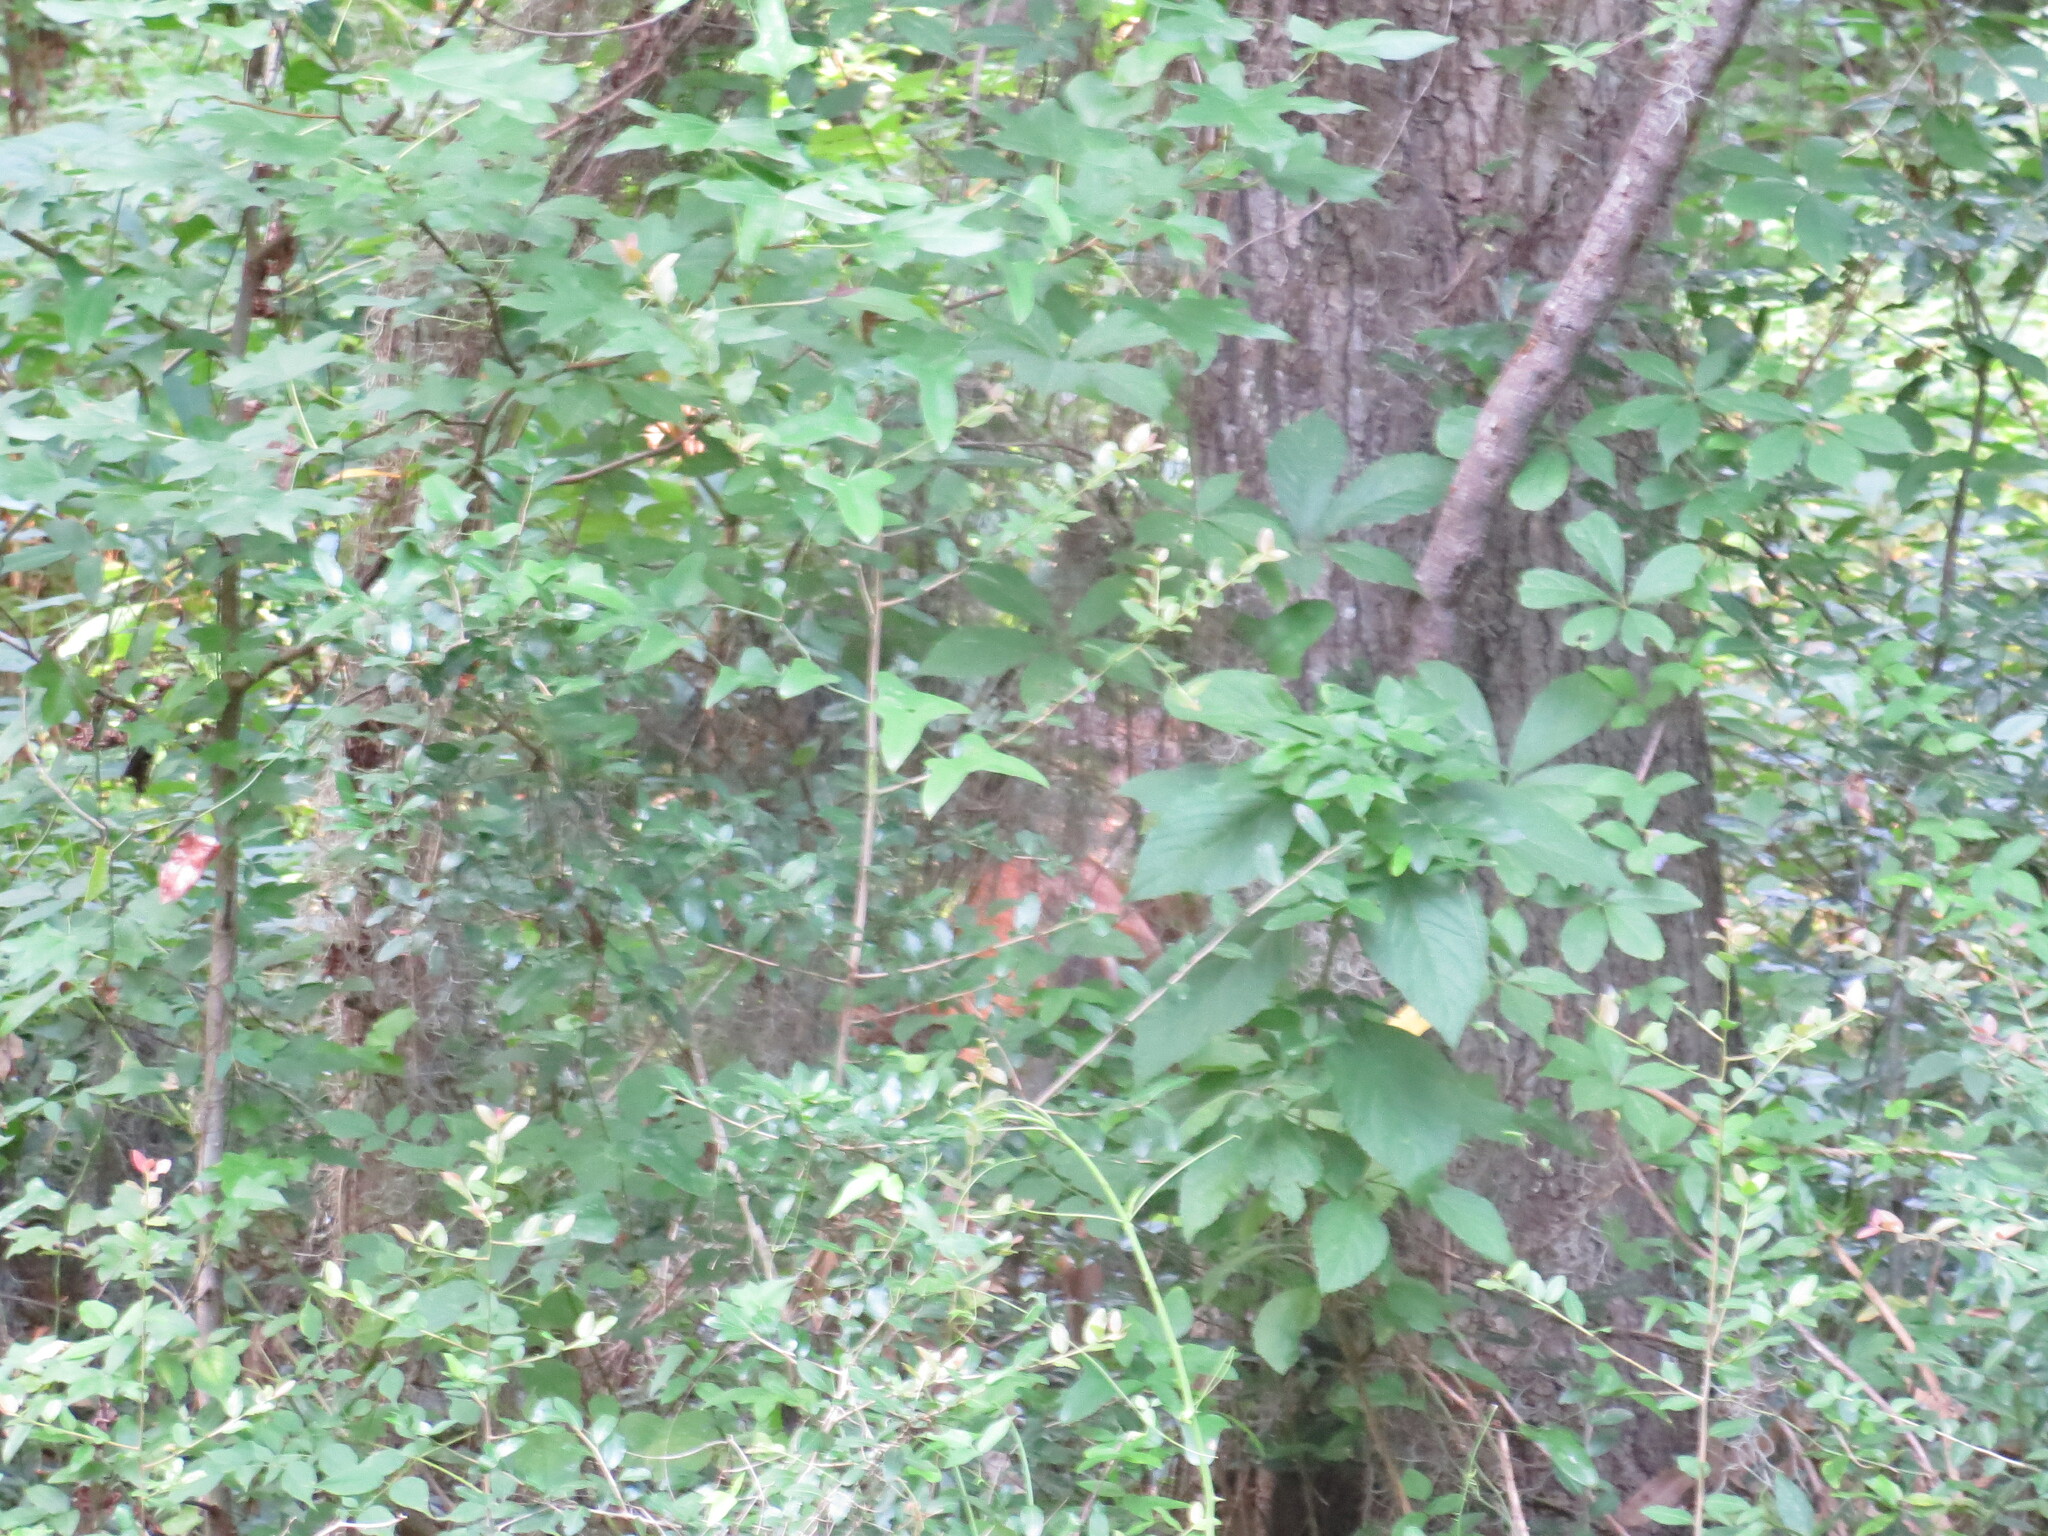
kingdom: Animalia
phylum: Chordata
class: Mammalia
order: Artiodactyla
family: Cervidae
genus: Odocoileus
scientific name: Odocoileus virginianus
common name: White-tailed deer
